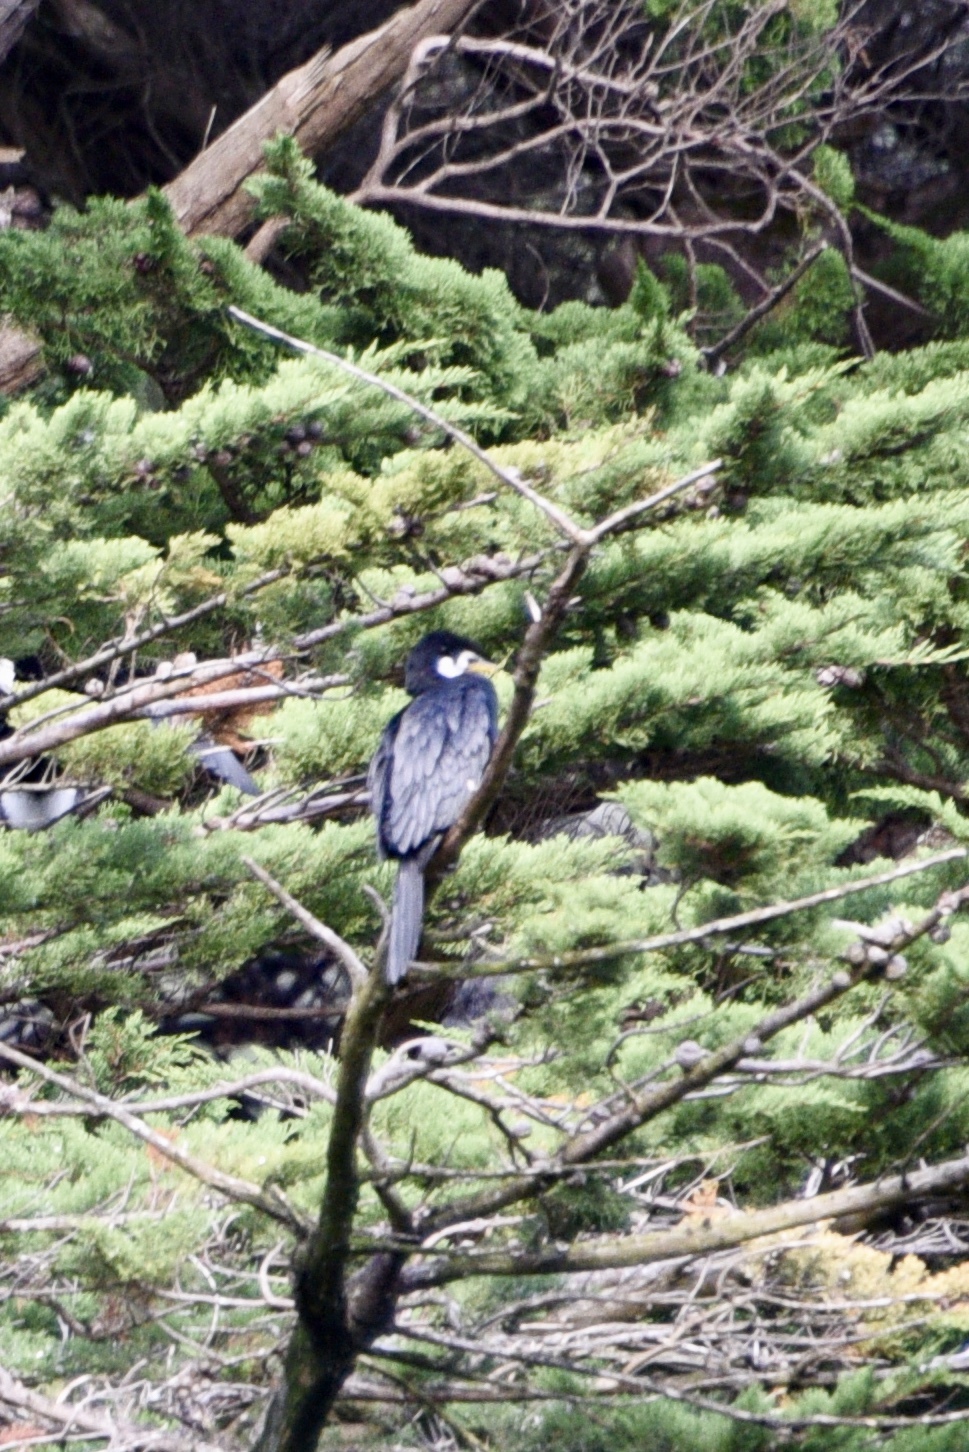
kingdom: Animalia
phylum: Chordata
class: Aves
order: Suliformes
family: Phalacrocoracidae
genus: Microcarbo
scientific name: Microcarbo melanoleucos
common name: Little pied cormorant
